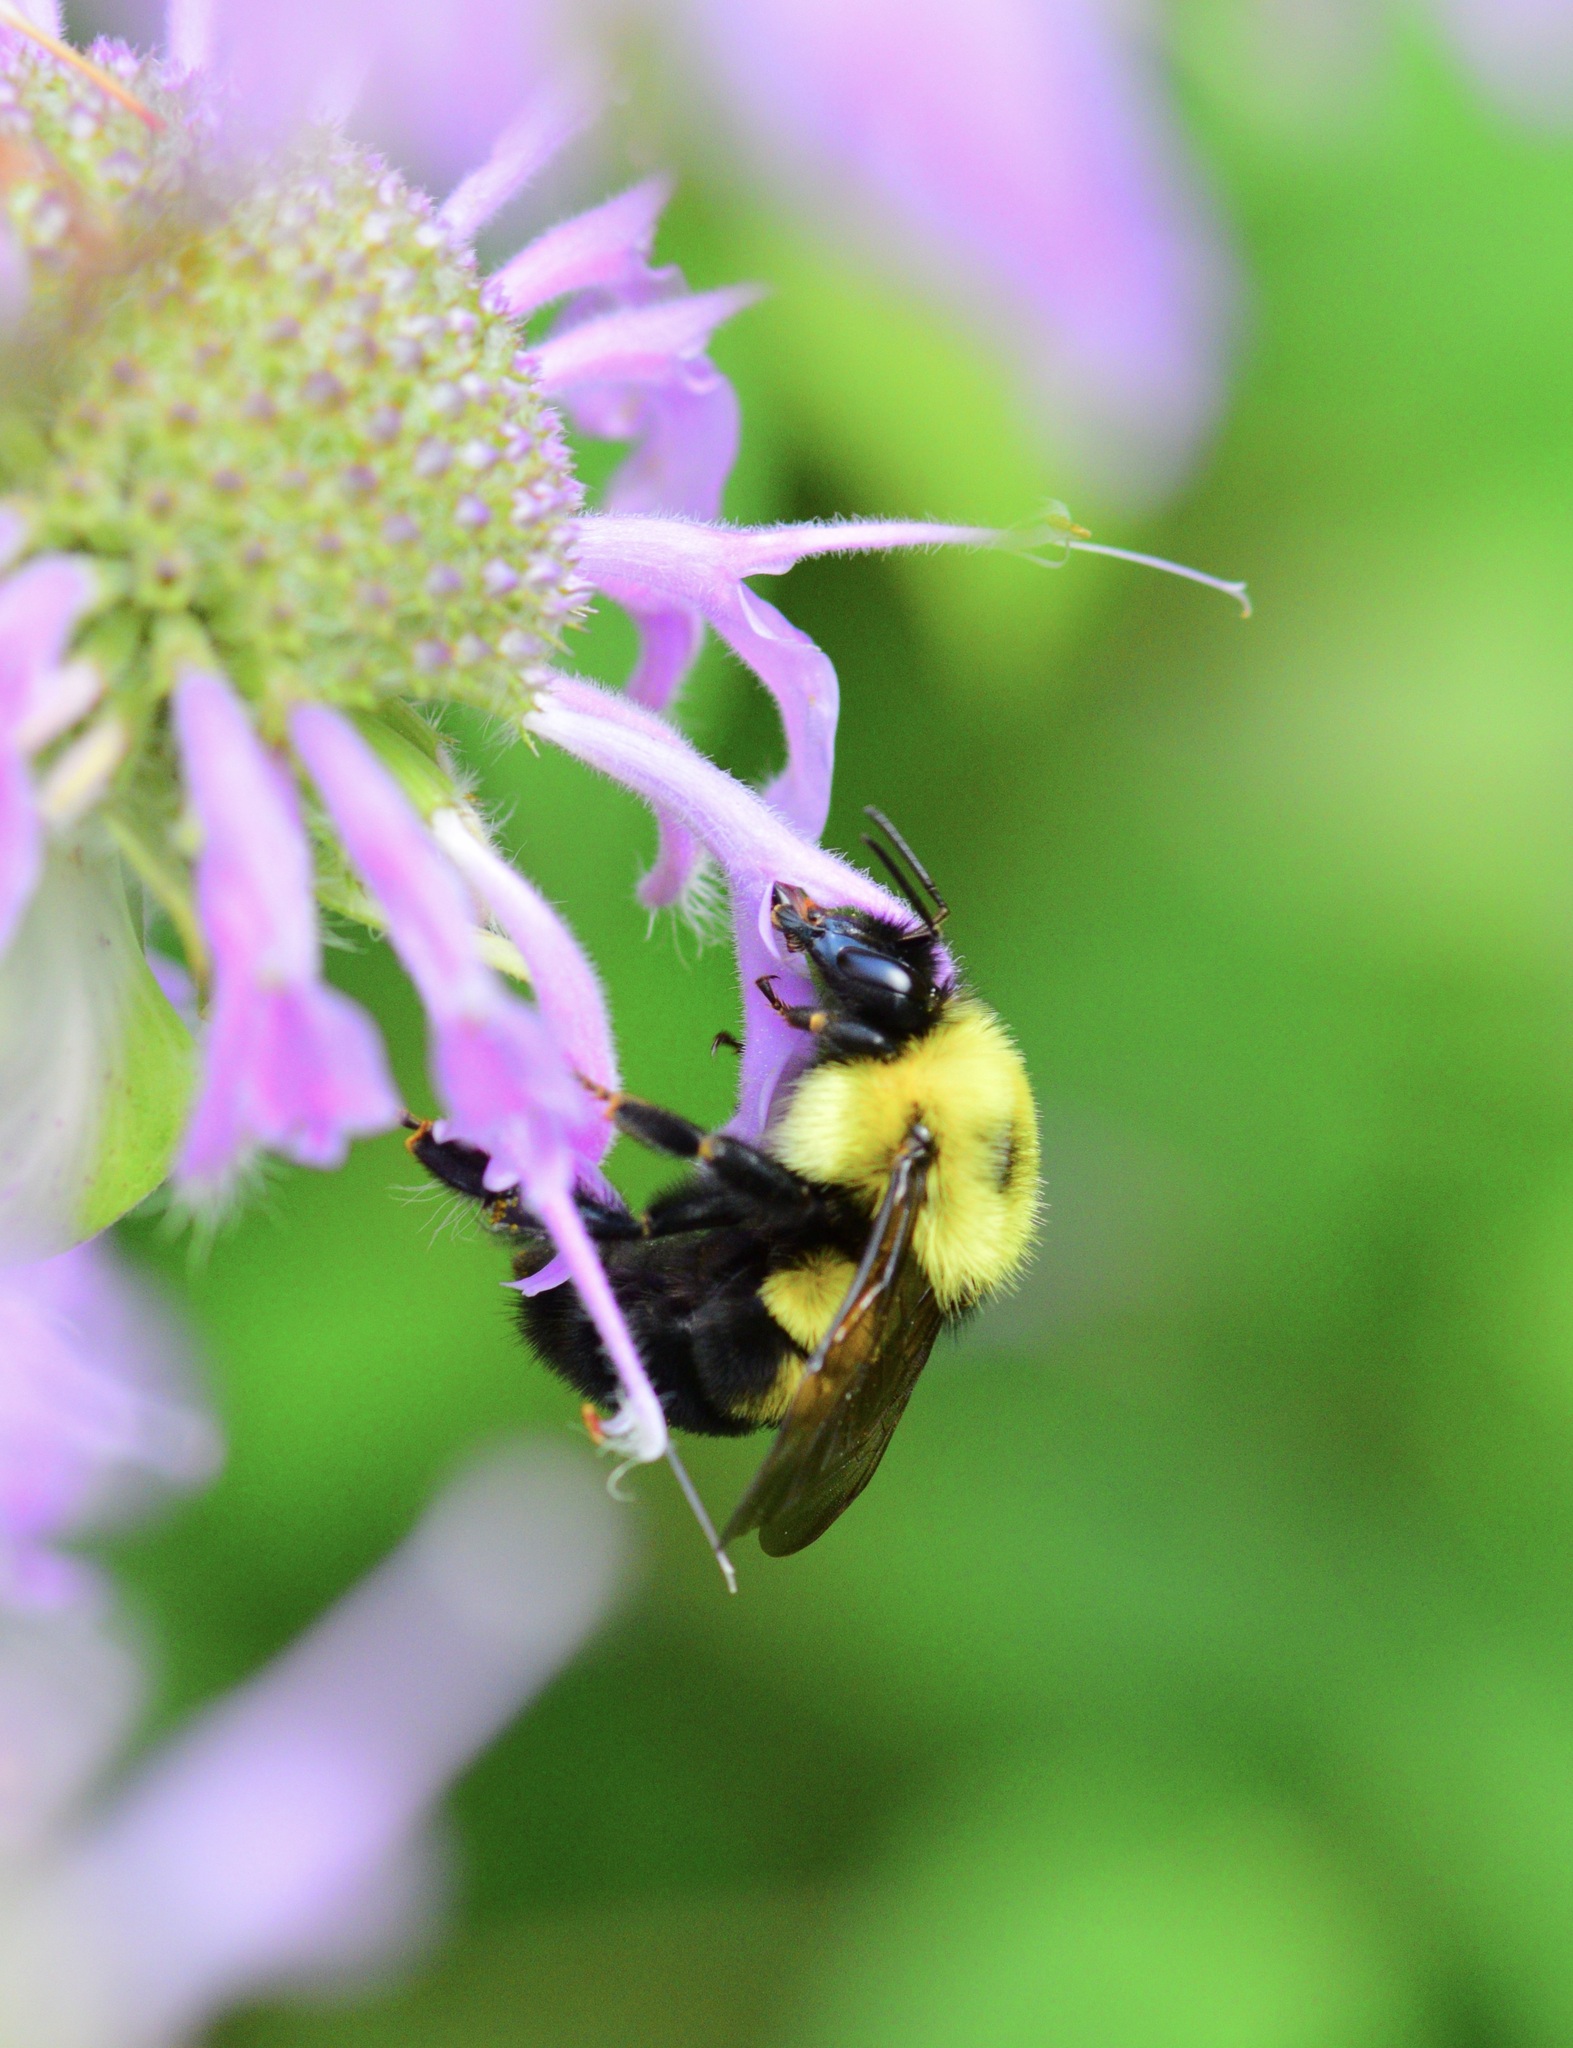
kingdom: Animalia
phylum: Arthropoda
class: Insecta
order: Hymenoptera
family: Apidae
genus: Bombus
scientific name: Bombus bimaculatus
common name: Two-spotted bumble bee
